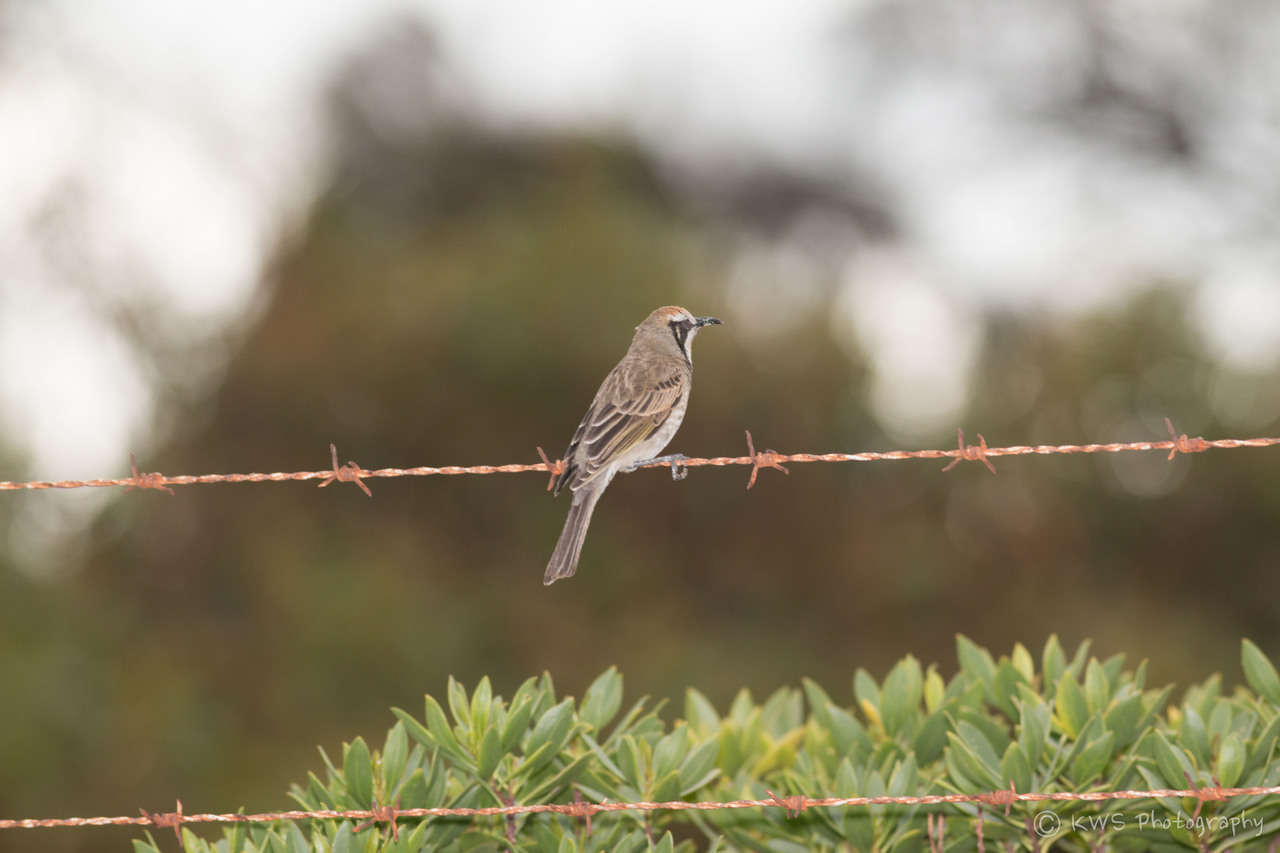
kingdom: Animalia
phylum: Chordata
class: Aves
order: Passeriformes
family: Meliphagidae
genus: Gliciphila
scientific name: Gliciphila melanops
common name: Tawny-crowned honeyeater
